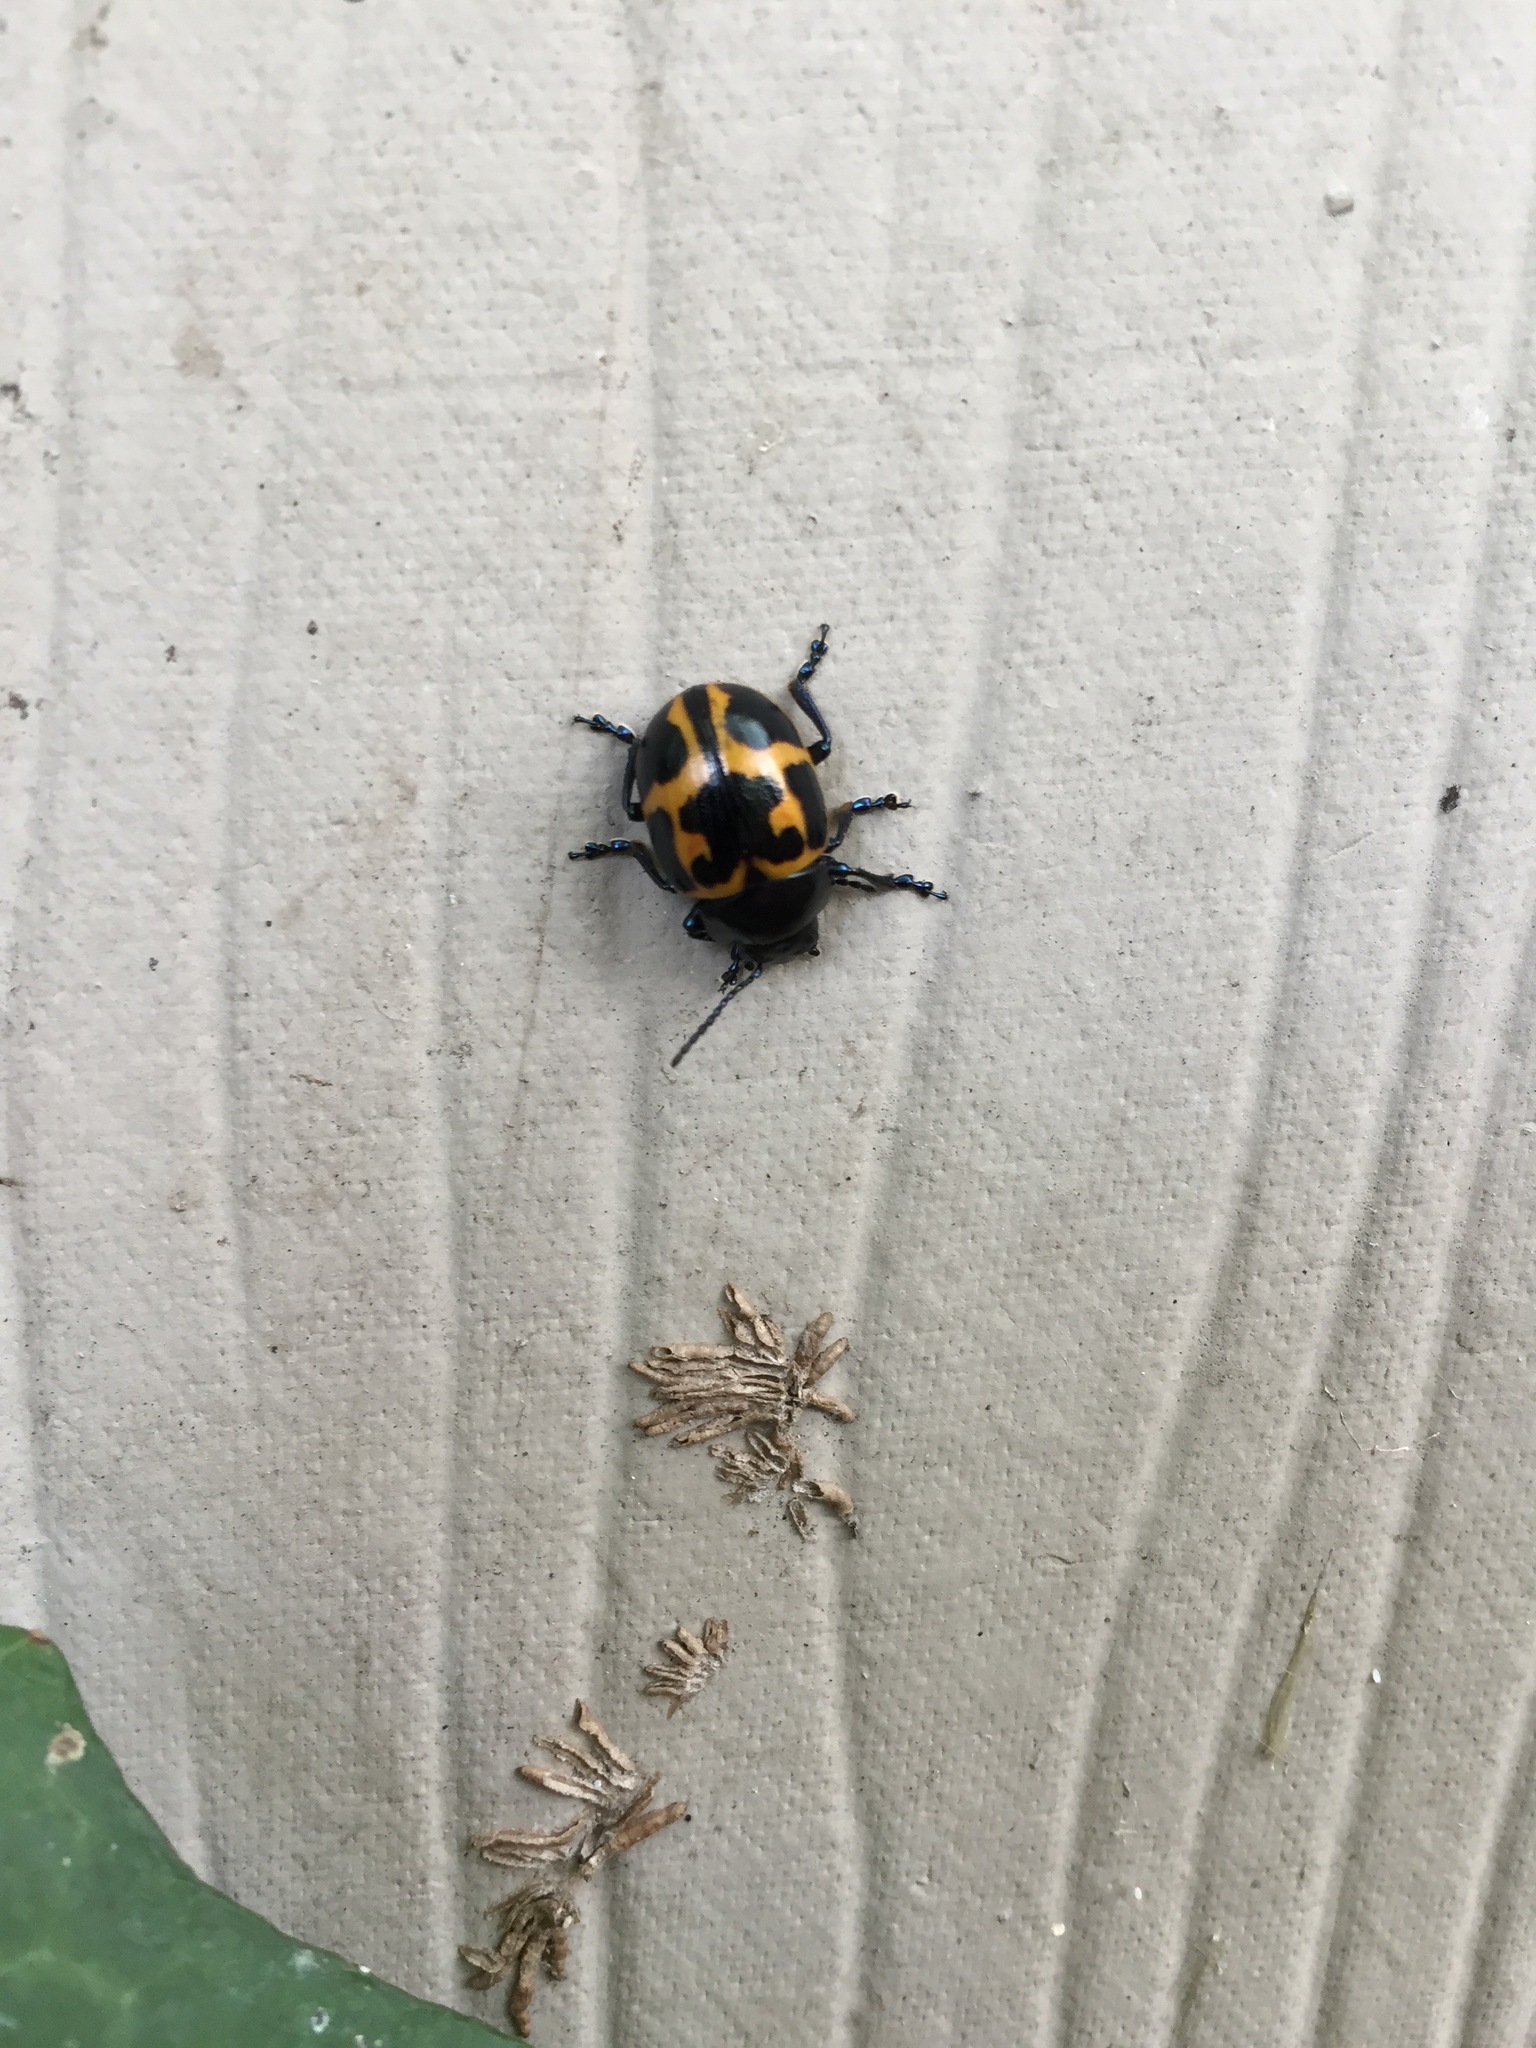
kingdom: Animalia
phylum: Arthropoda
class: Insecta
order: Coleoptera
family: Chrysomelidae
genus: Labidomera
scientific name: Labidomera clivicollis
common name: Swamp milkweed leaf beetle
